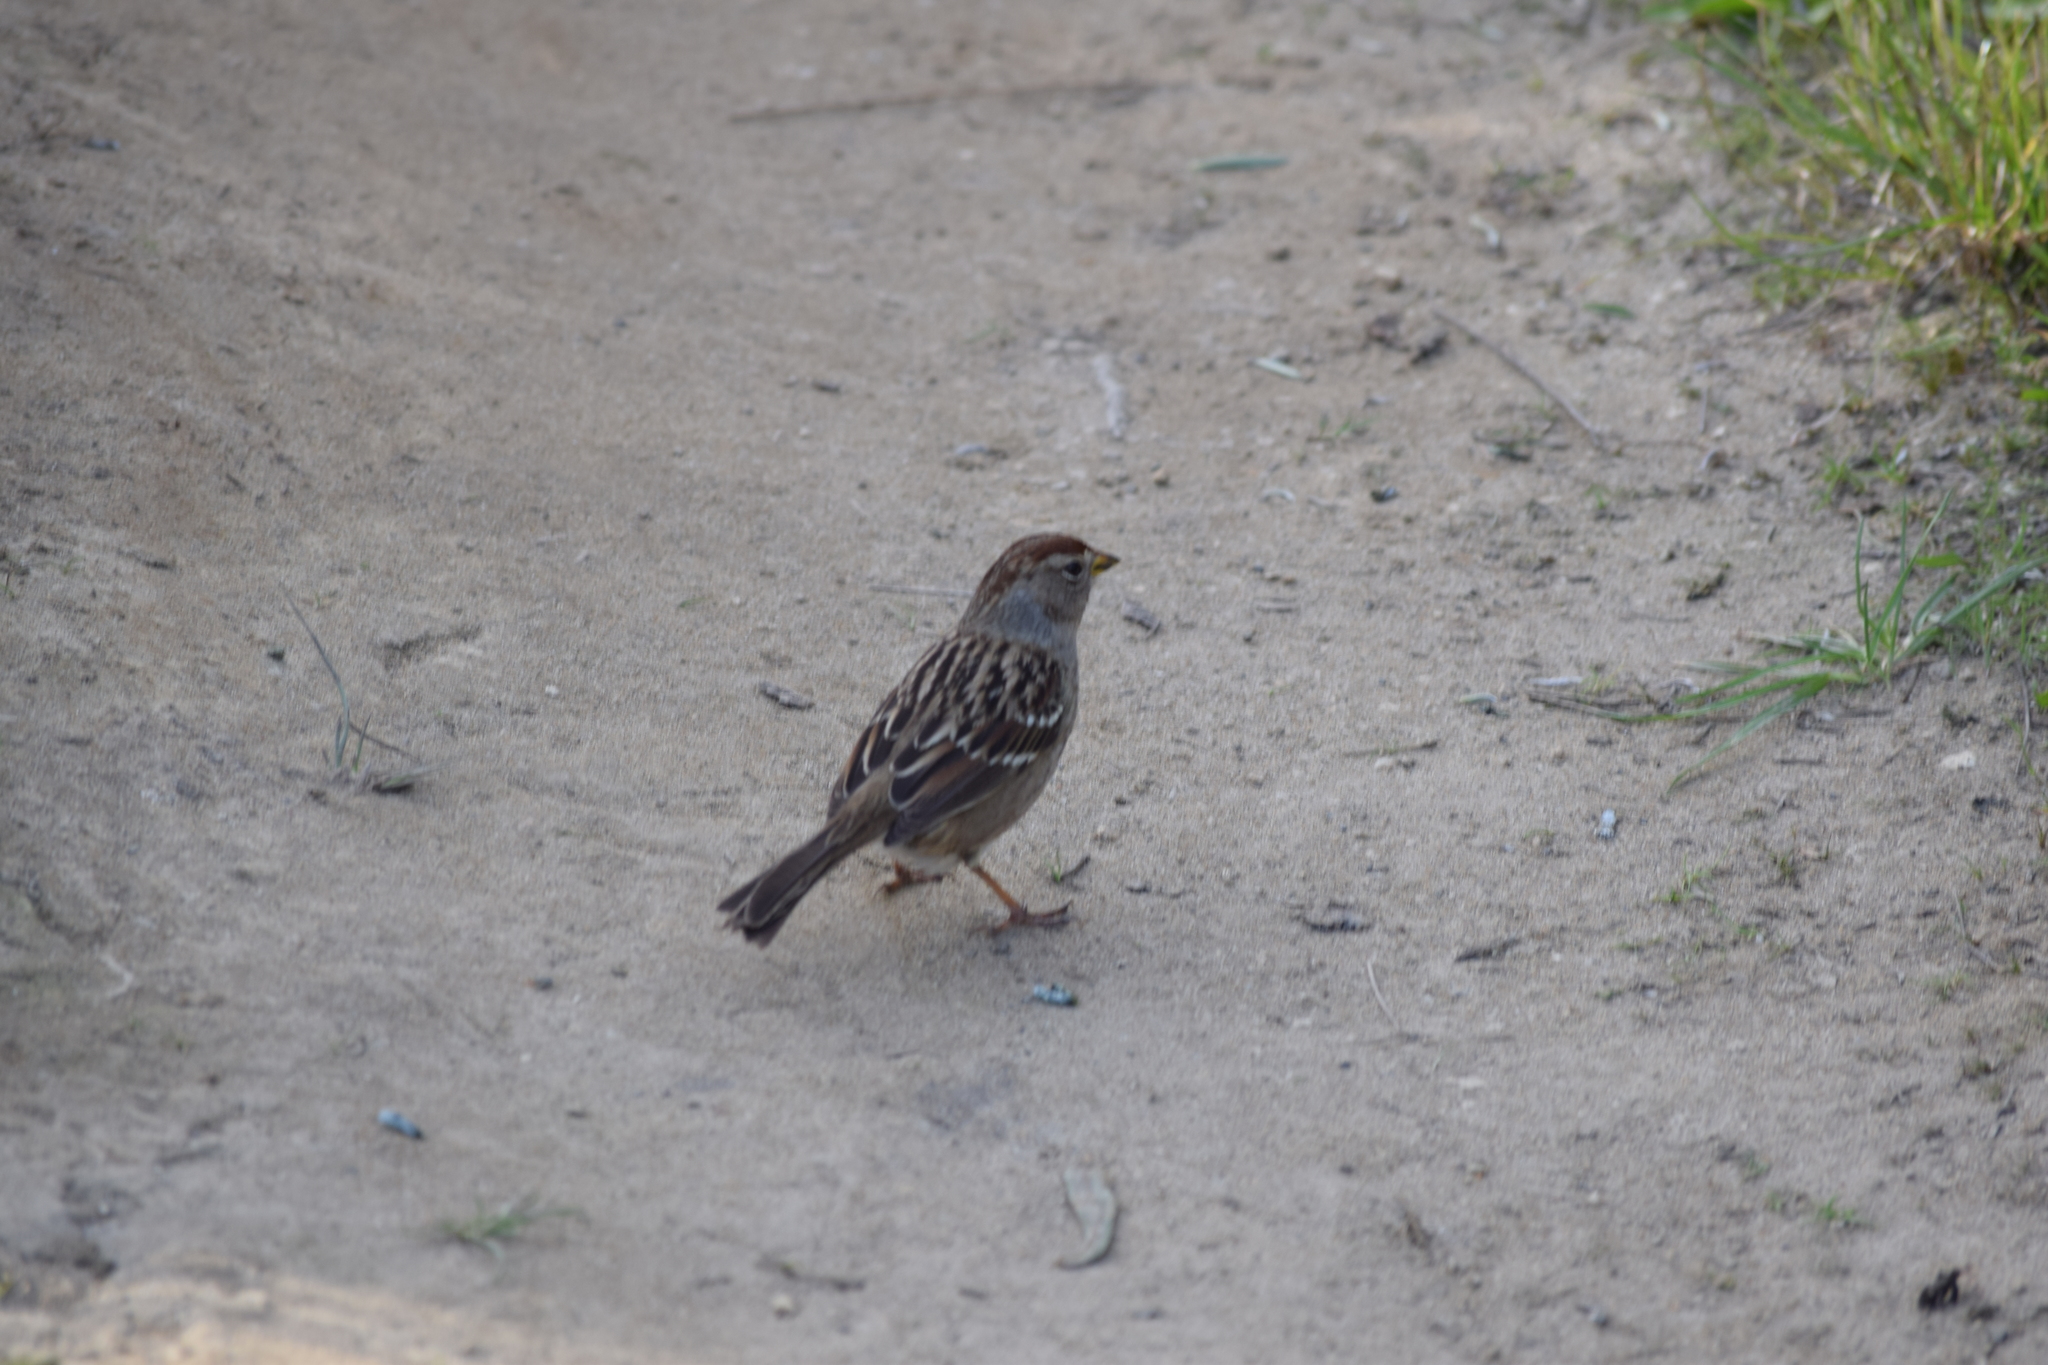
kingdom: Animalia
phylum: Chordata
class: Aves
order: Passeriformes
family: Passerellidae
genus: Zonotrichia
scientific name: Zonotrichia leucophrys
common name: White-crowned sparrow
